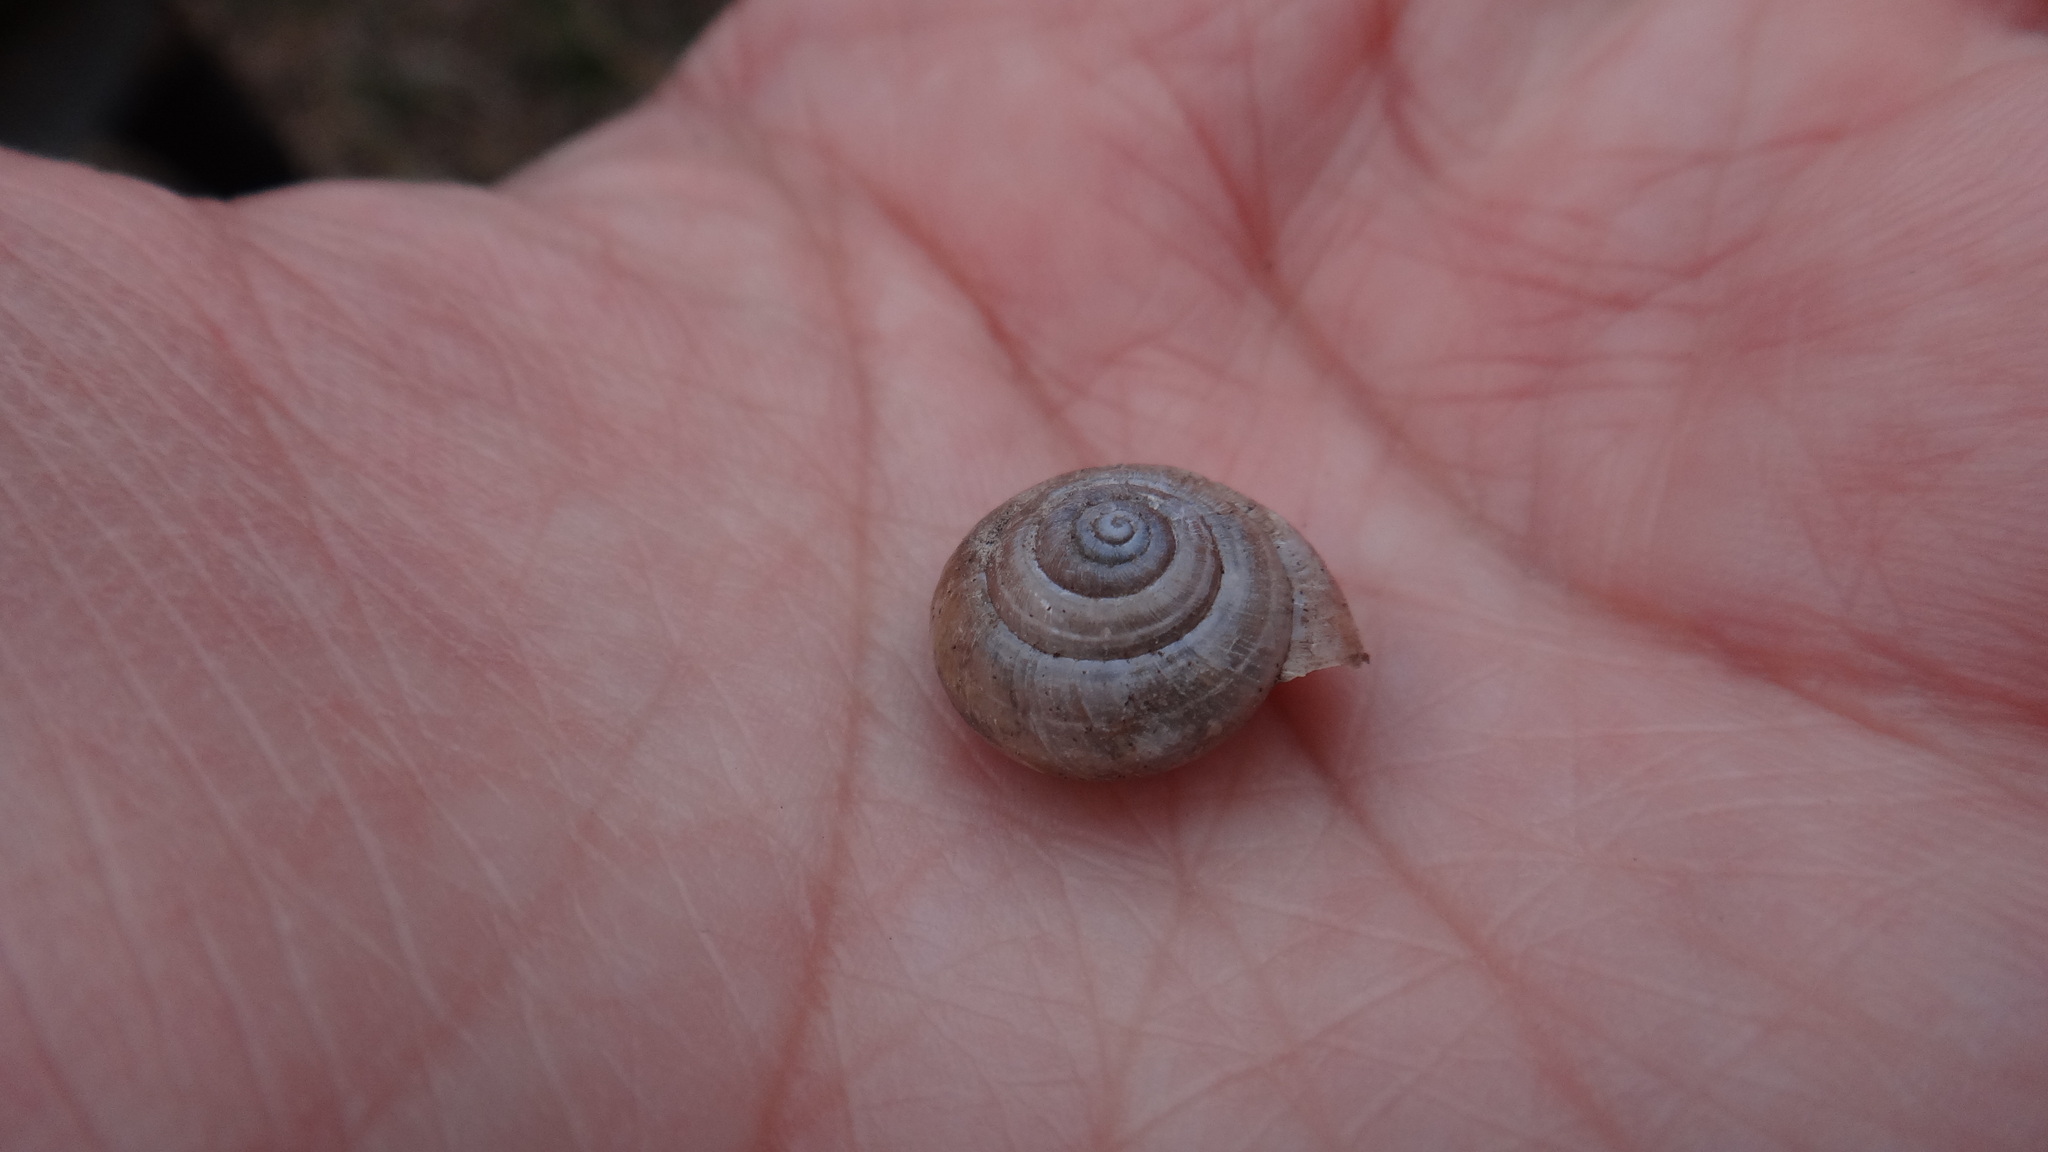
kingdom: Animalia
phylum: Mollusca
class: Gastropoda
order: Stylommatophora
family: Hygromiidae
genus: Euomphalia
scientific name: Euomphalia strigella
